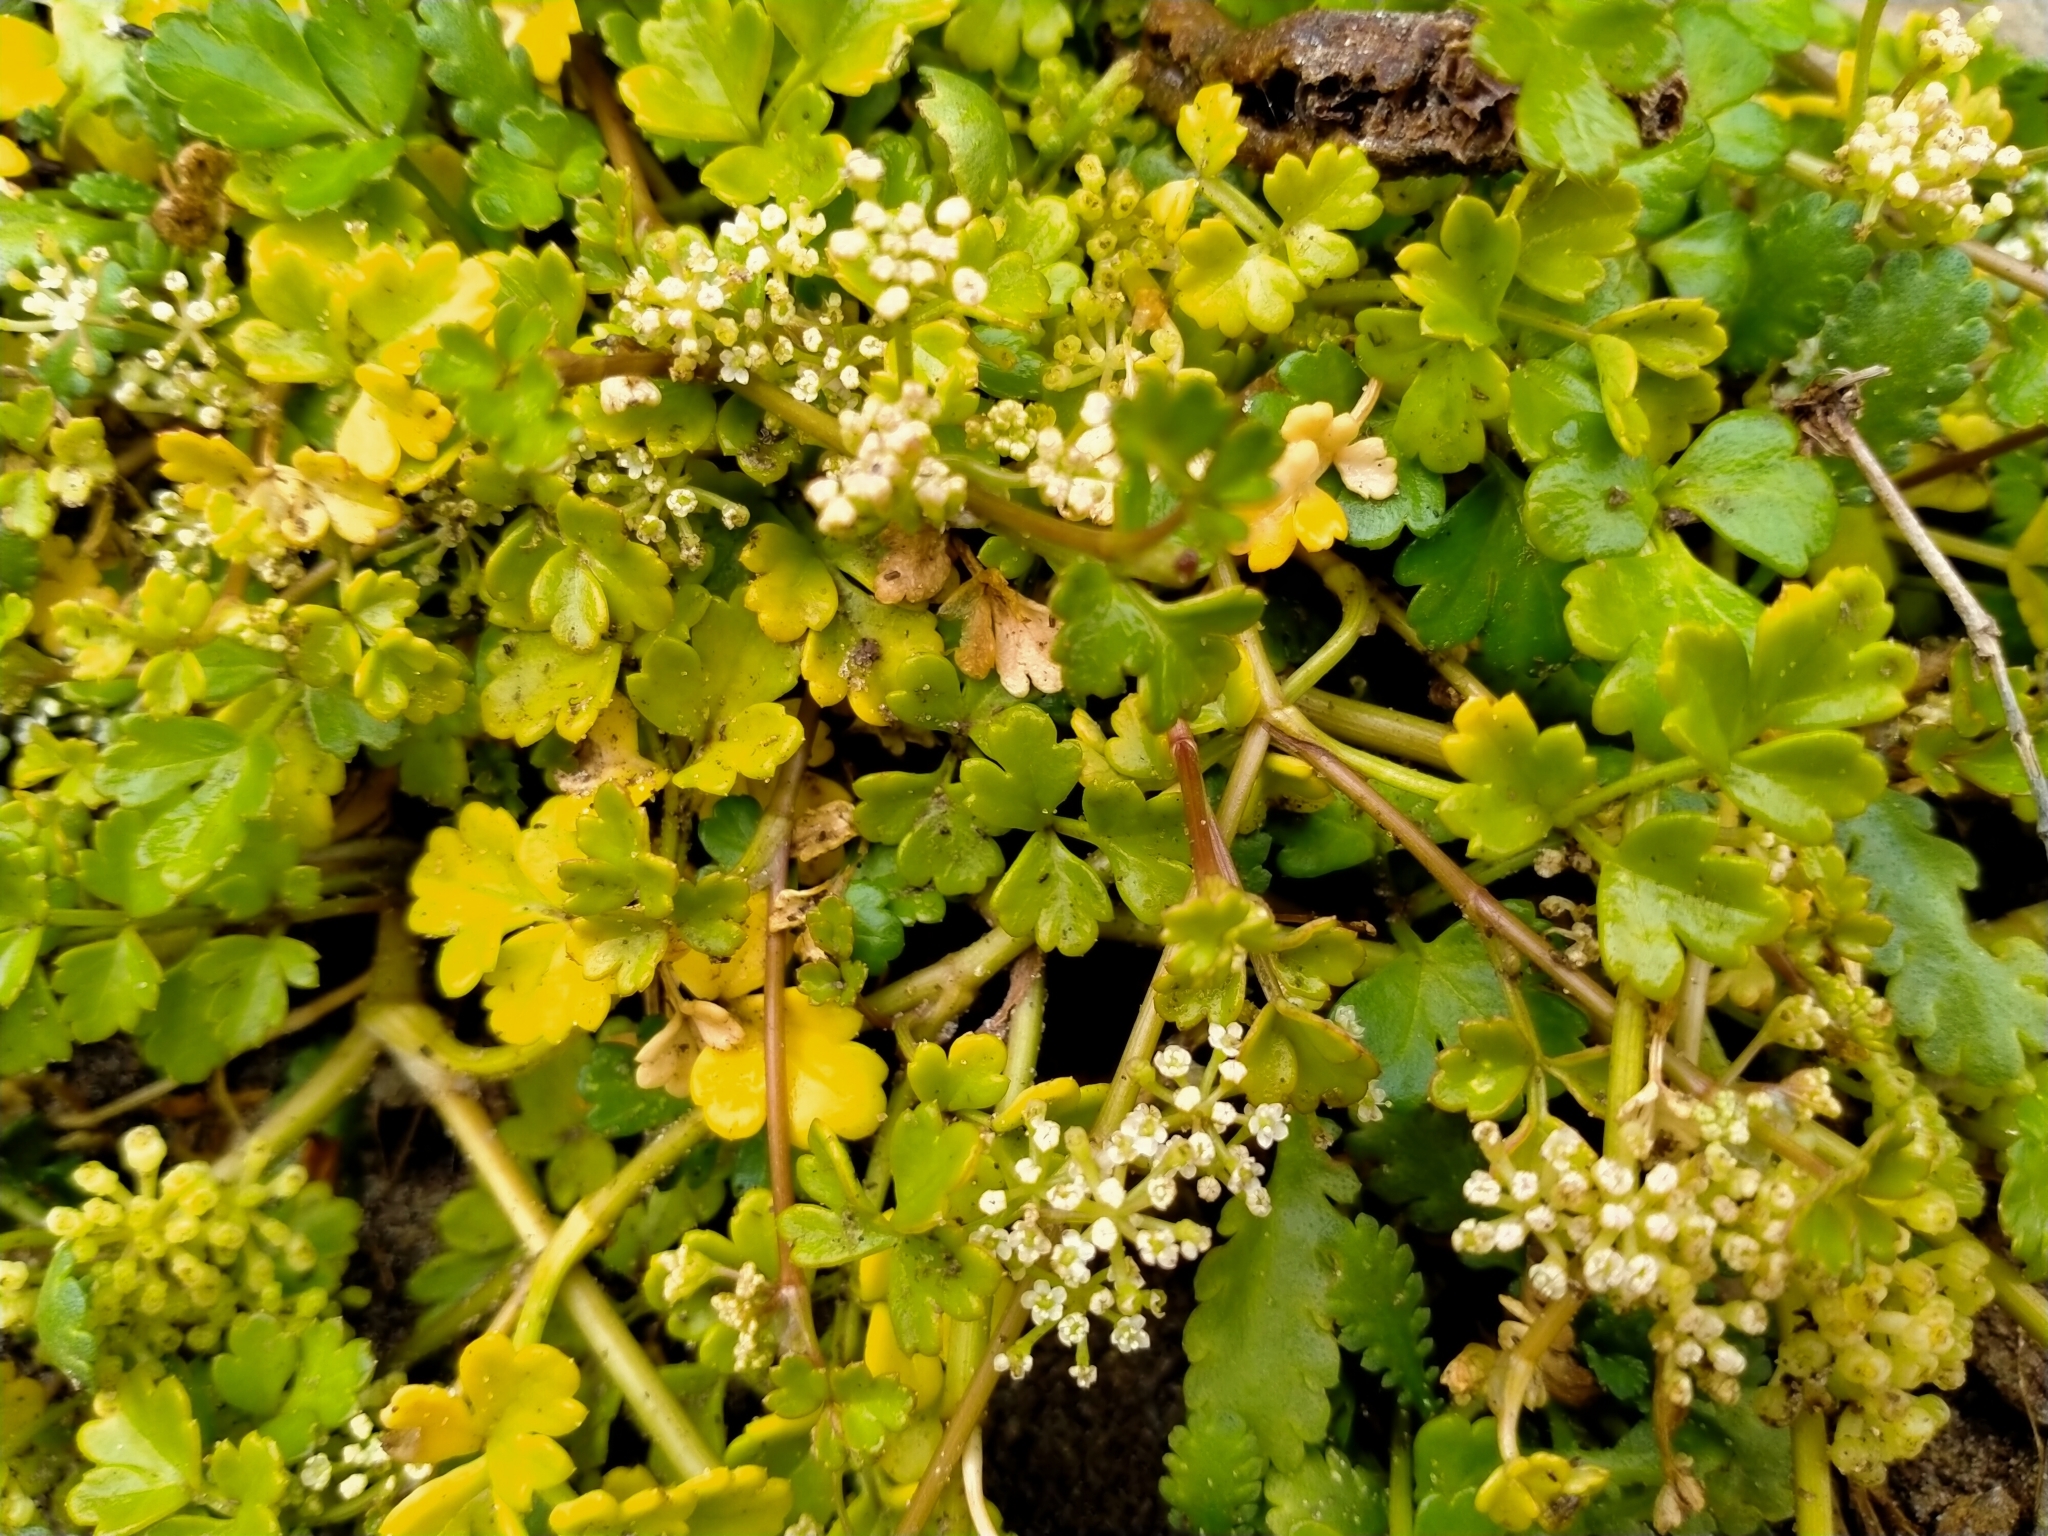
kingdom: Plantae
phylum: Tracheophyta
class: Magnoliopsida
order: Apiales
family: Apiaceae
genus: Apium
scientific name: Apium prostratum
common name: Prostrate marshwort
